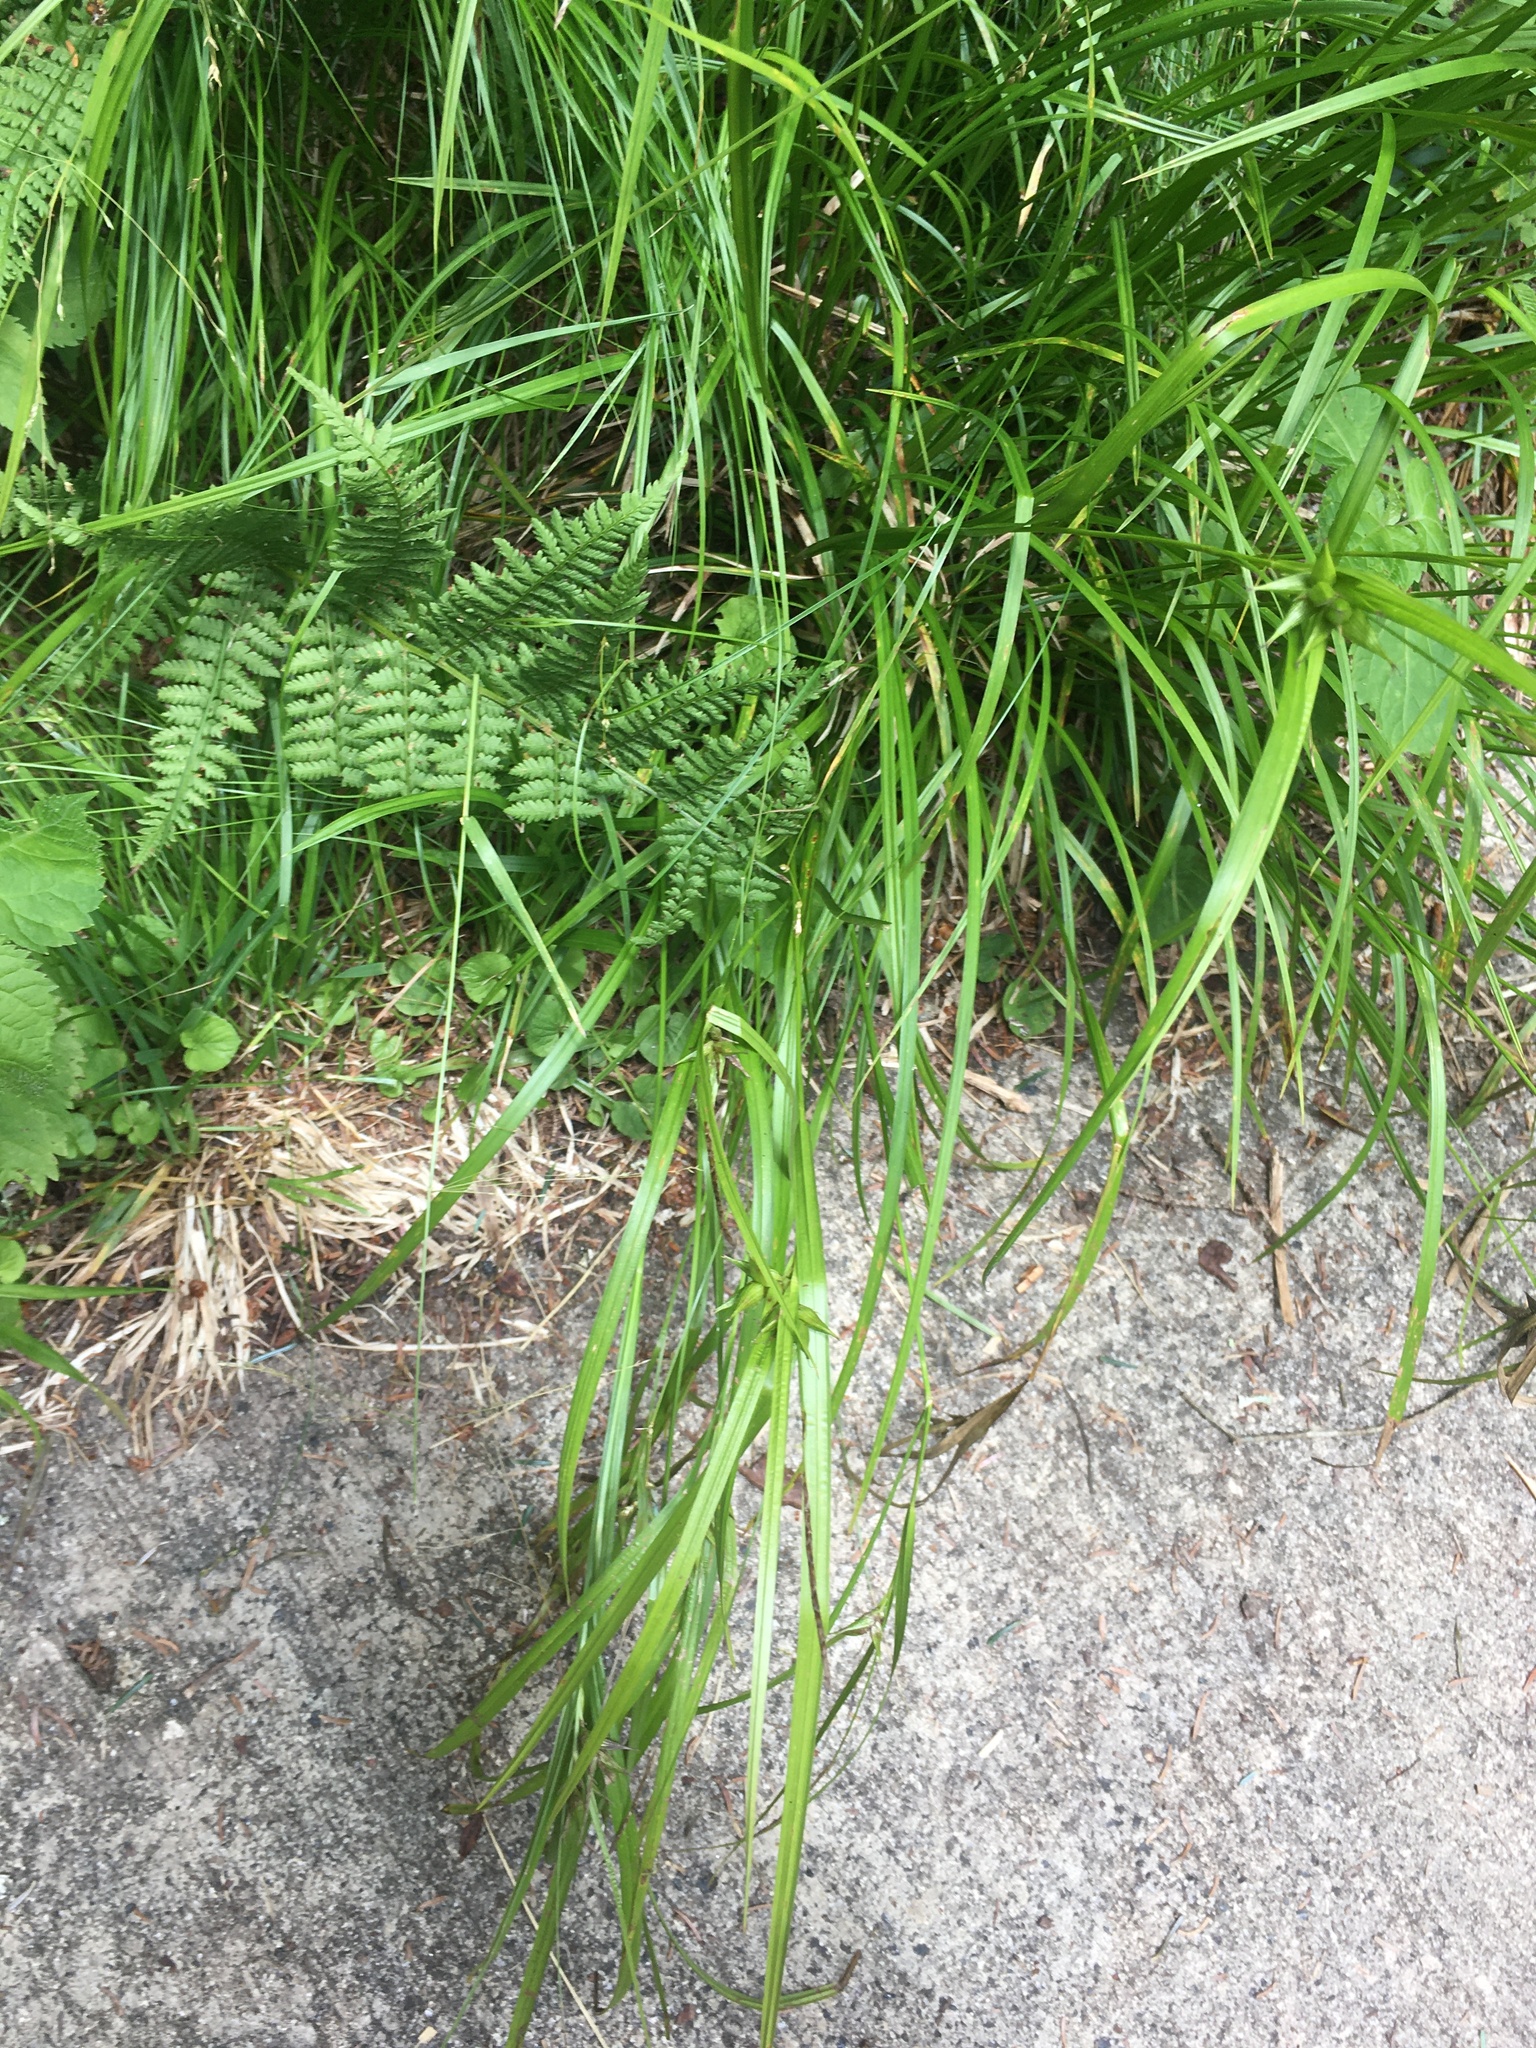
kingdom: Plantae
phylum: Tracheophyta
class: Liliopsida
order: Poales
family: Cyperaceae
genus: Carex
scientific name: Carex intumescens
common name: Greater bladder sedge
